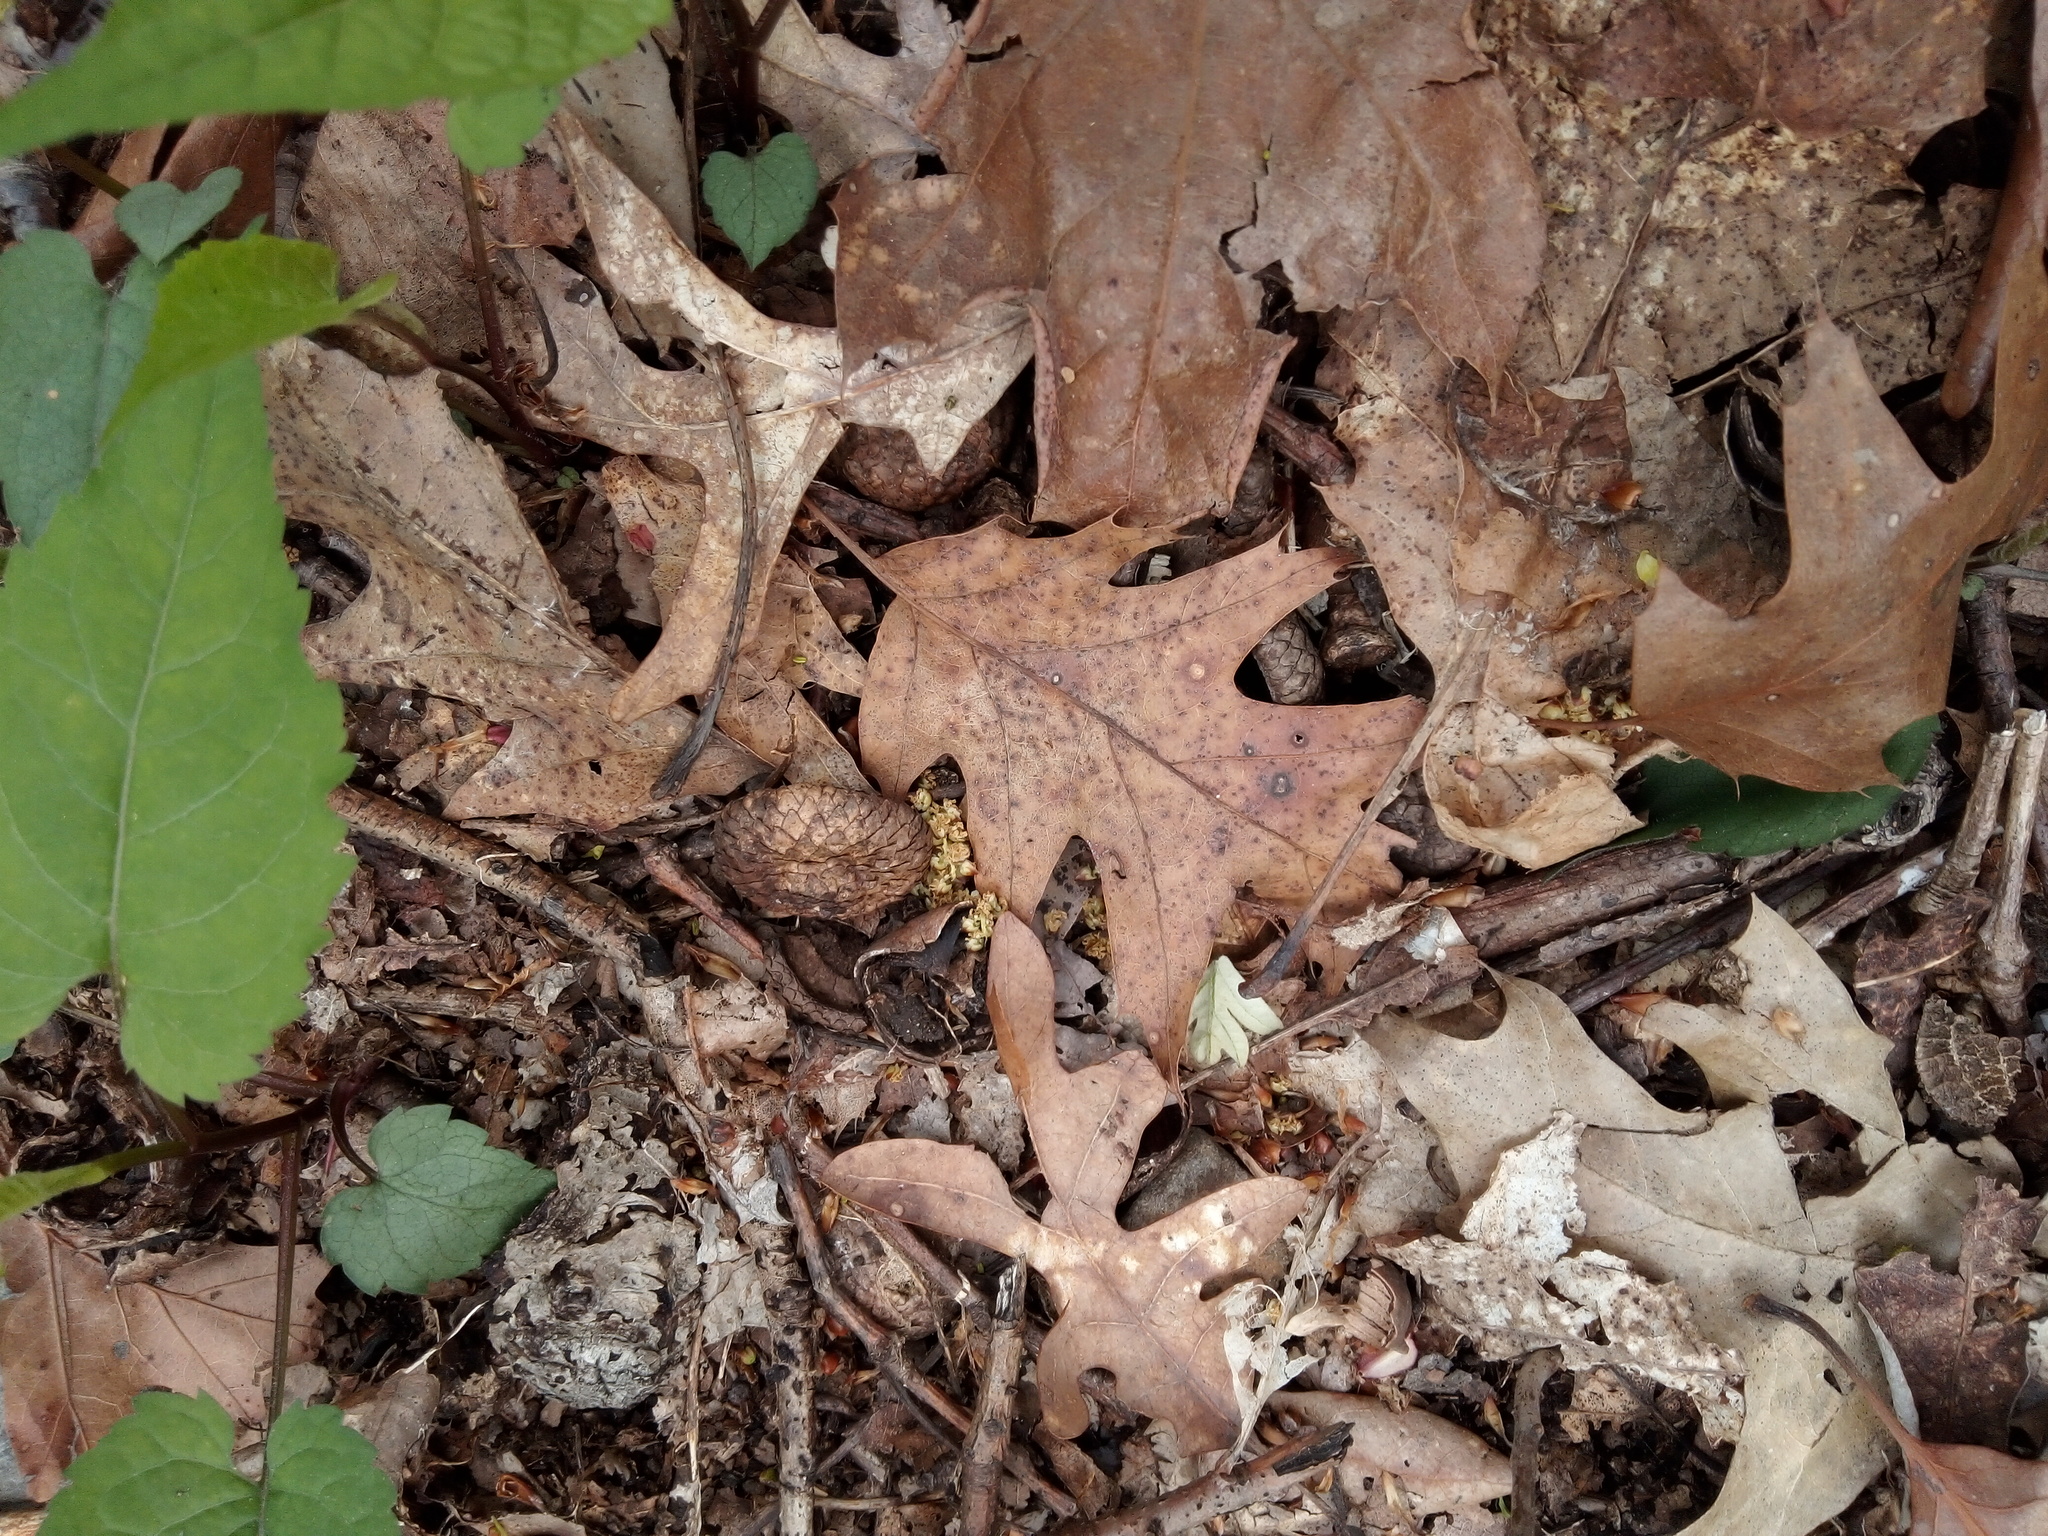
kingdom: Plantae
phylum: Tracheophyta
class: Magnoliopsida
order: Fagales
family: Fagaceae
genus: Quercus
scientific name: Quercus rubra
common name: Red oak
